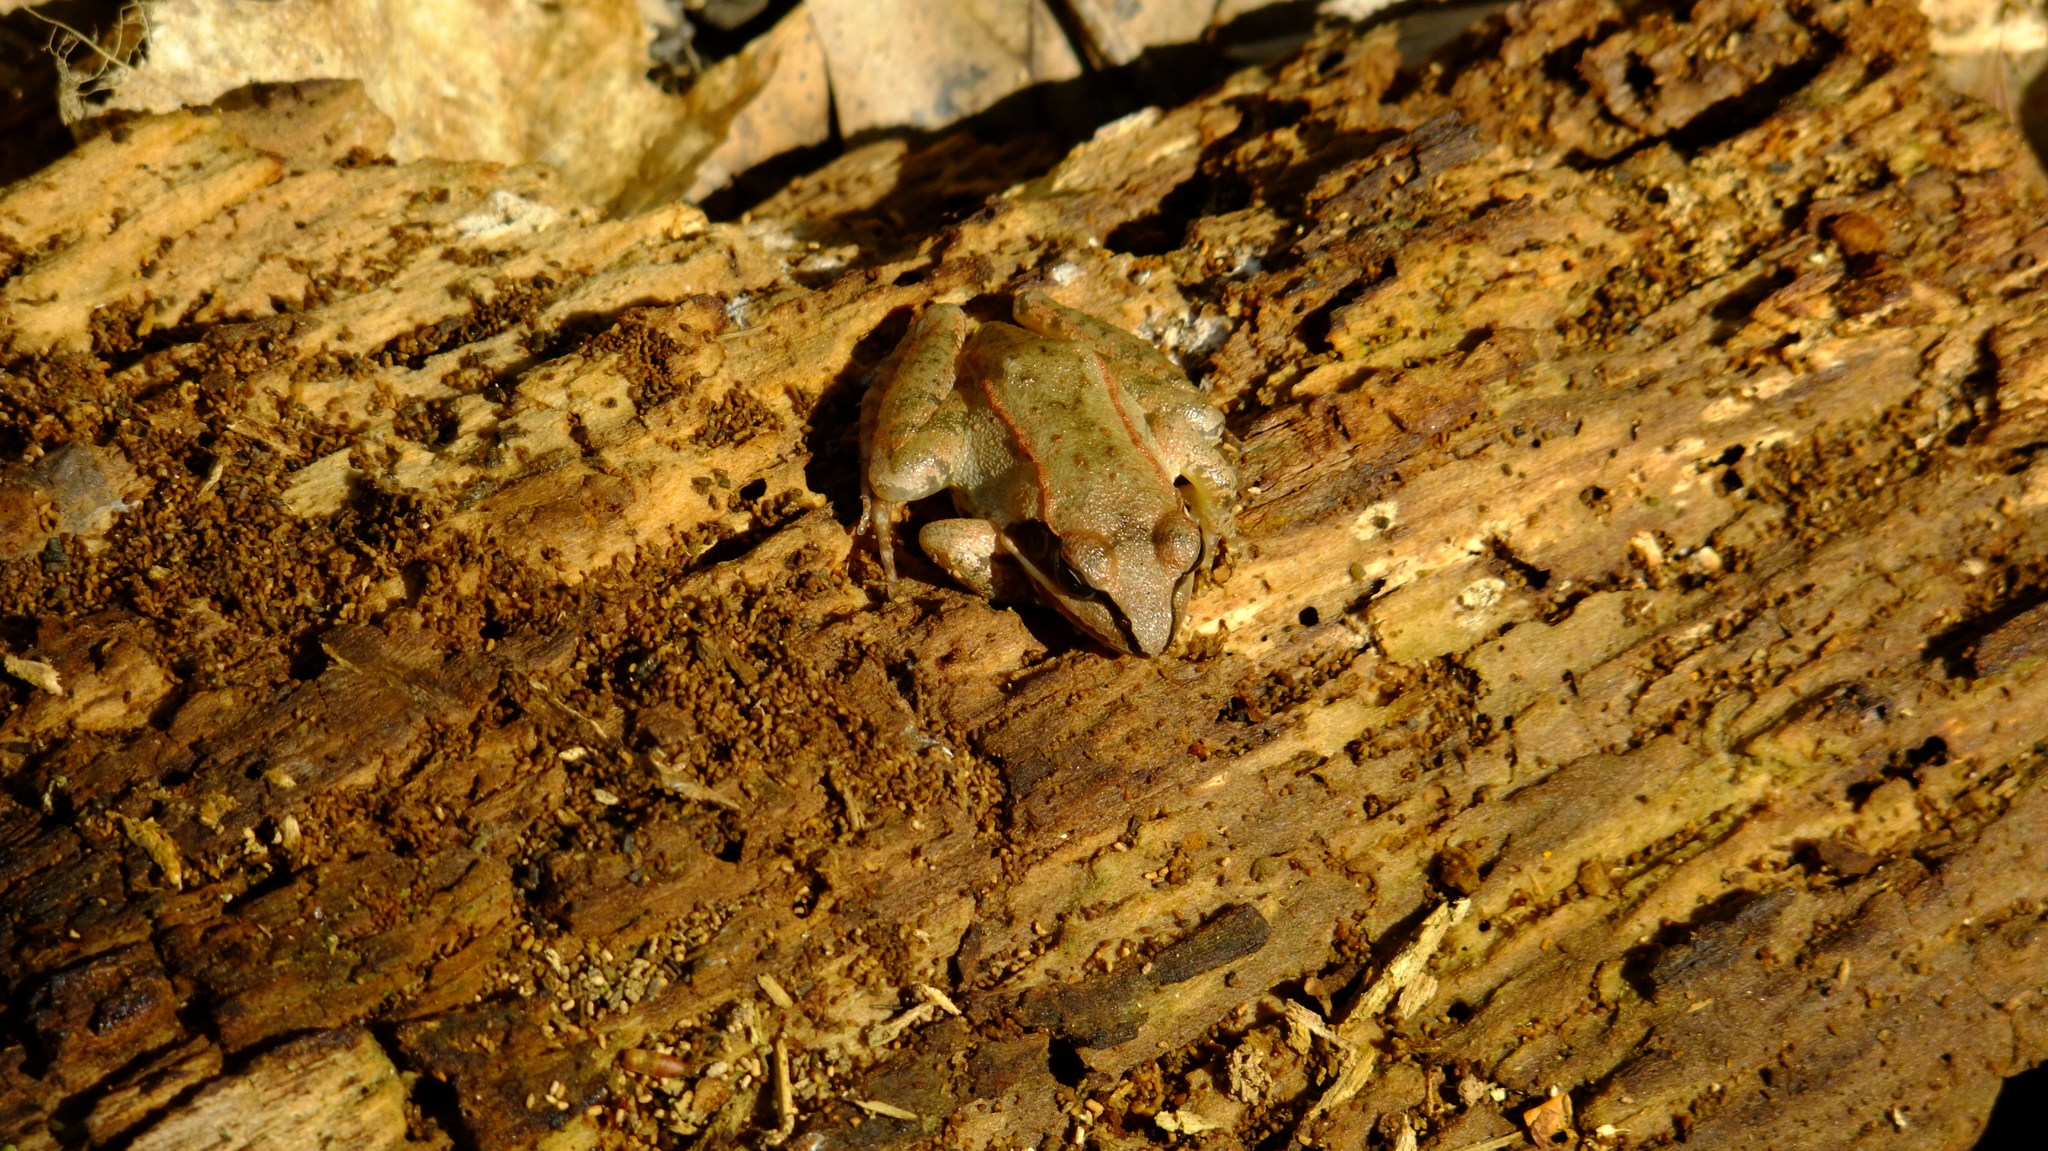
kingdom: Animalia
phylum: Chordata
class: Amphibia
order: Anura
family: Ranidae
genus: Lithobates
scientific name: Lithobates sylvaticus
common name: Wood frog
